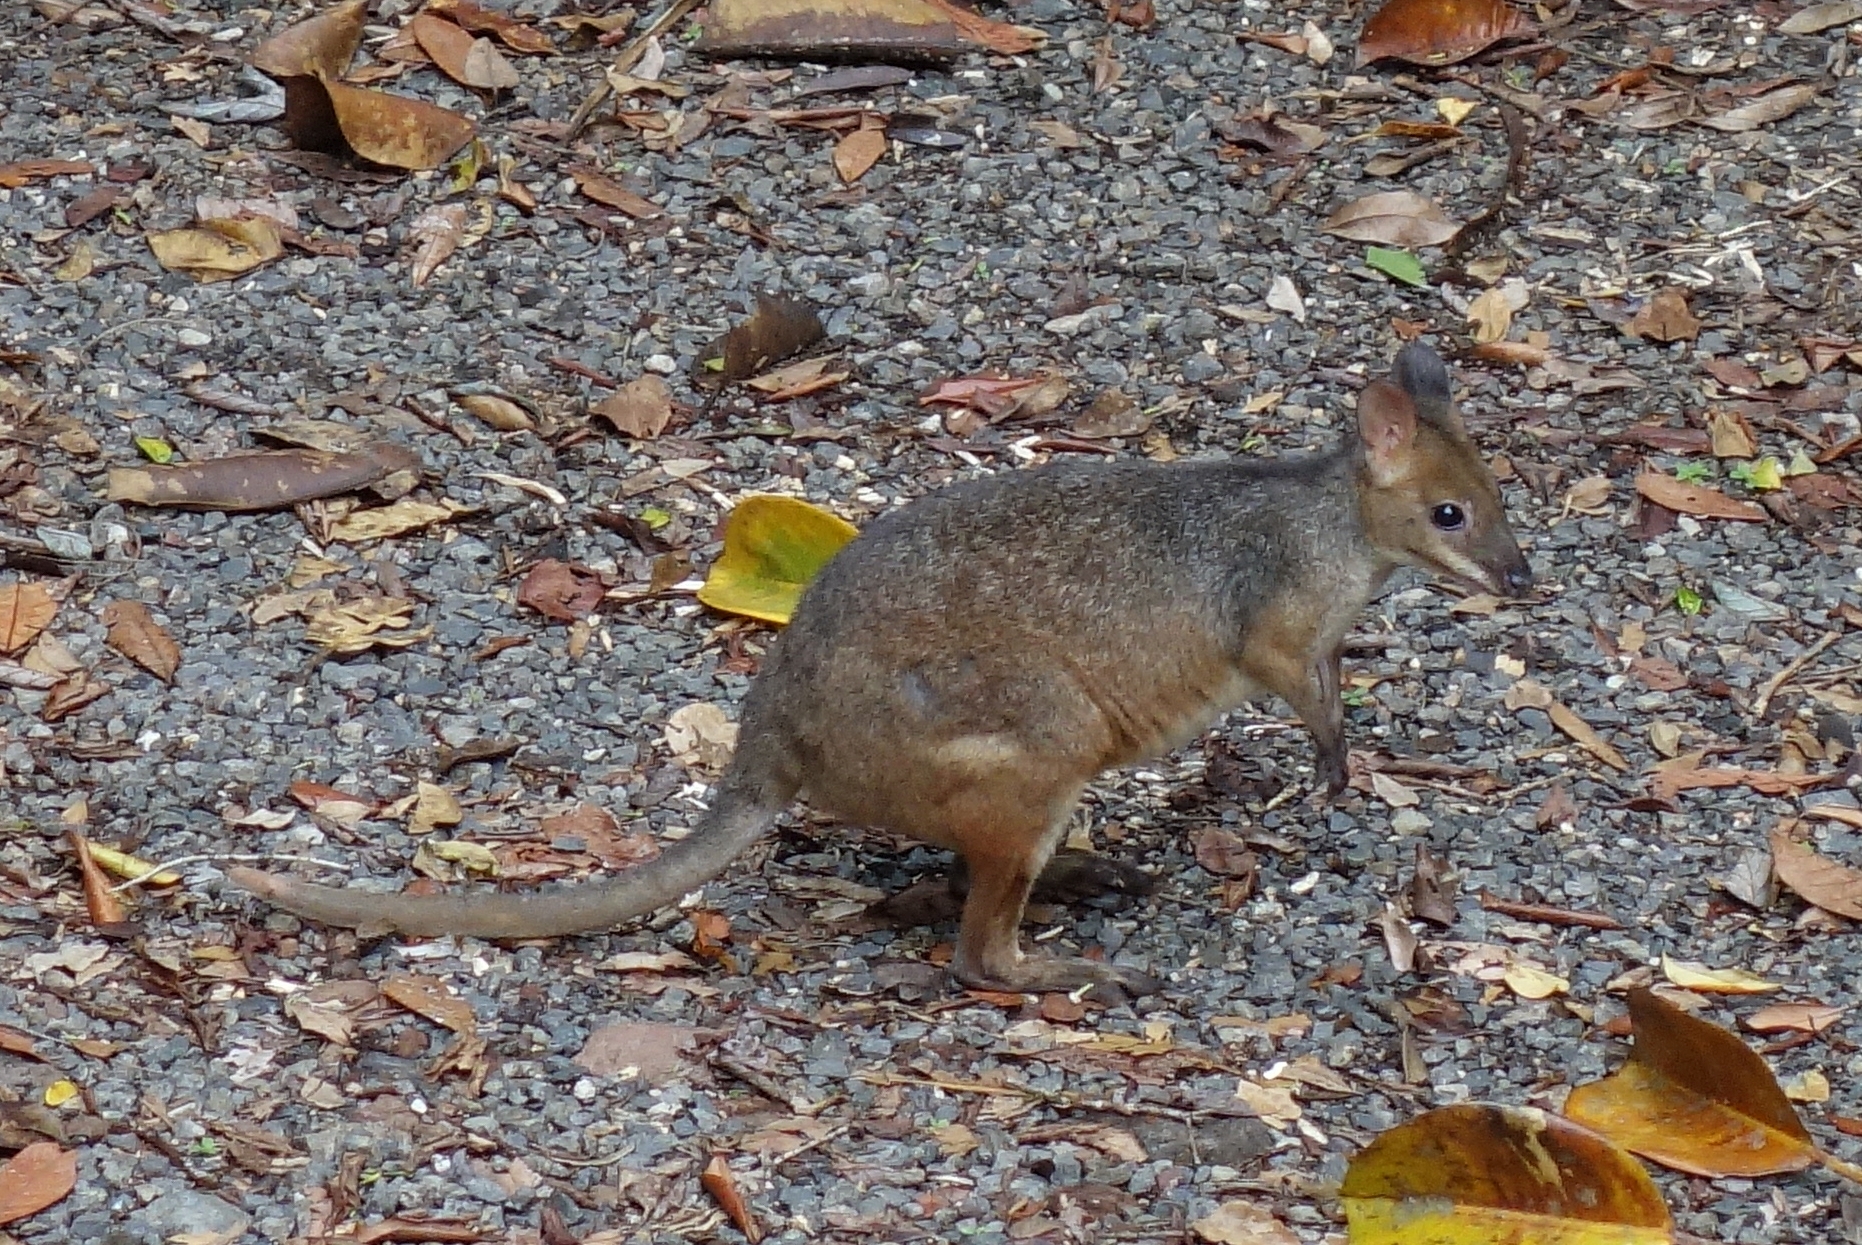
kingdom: Animalia
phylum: Chordata
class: Mammalia
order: Diprotodontia
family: Macropodidae
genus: Thylogale
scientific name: Thylogale stigmatica
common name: Red-legged pademelon
